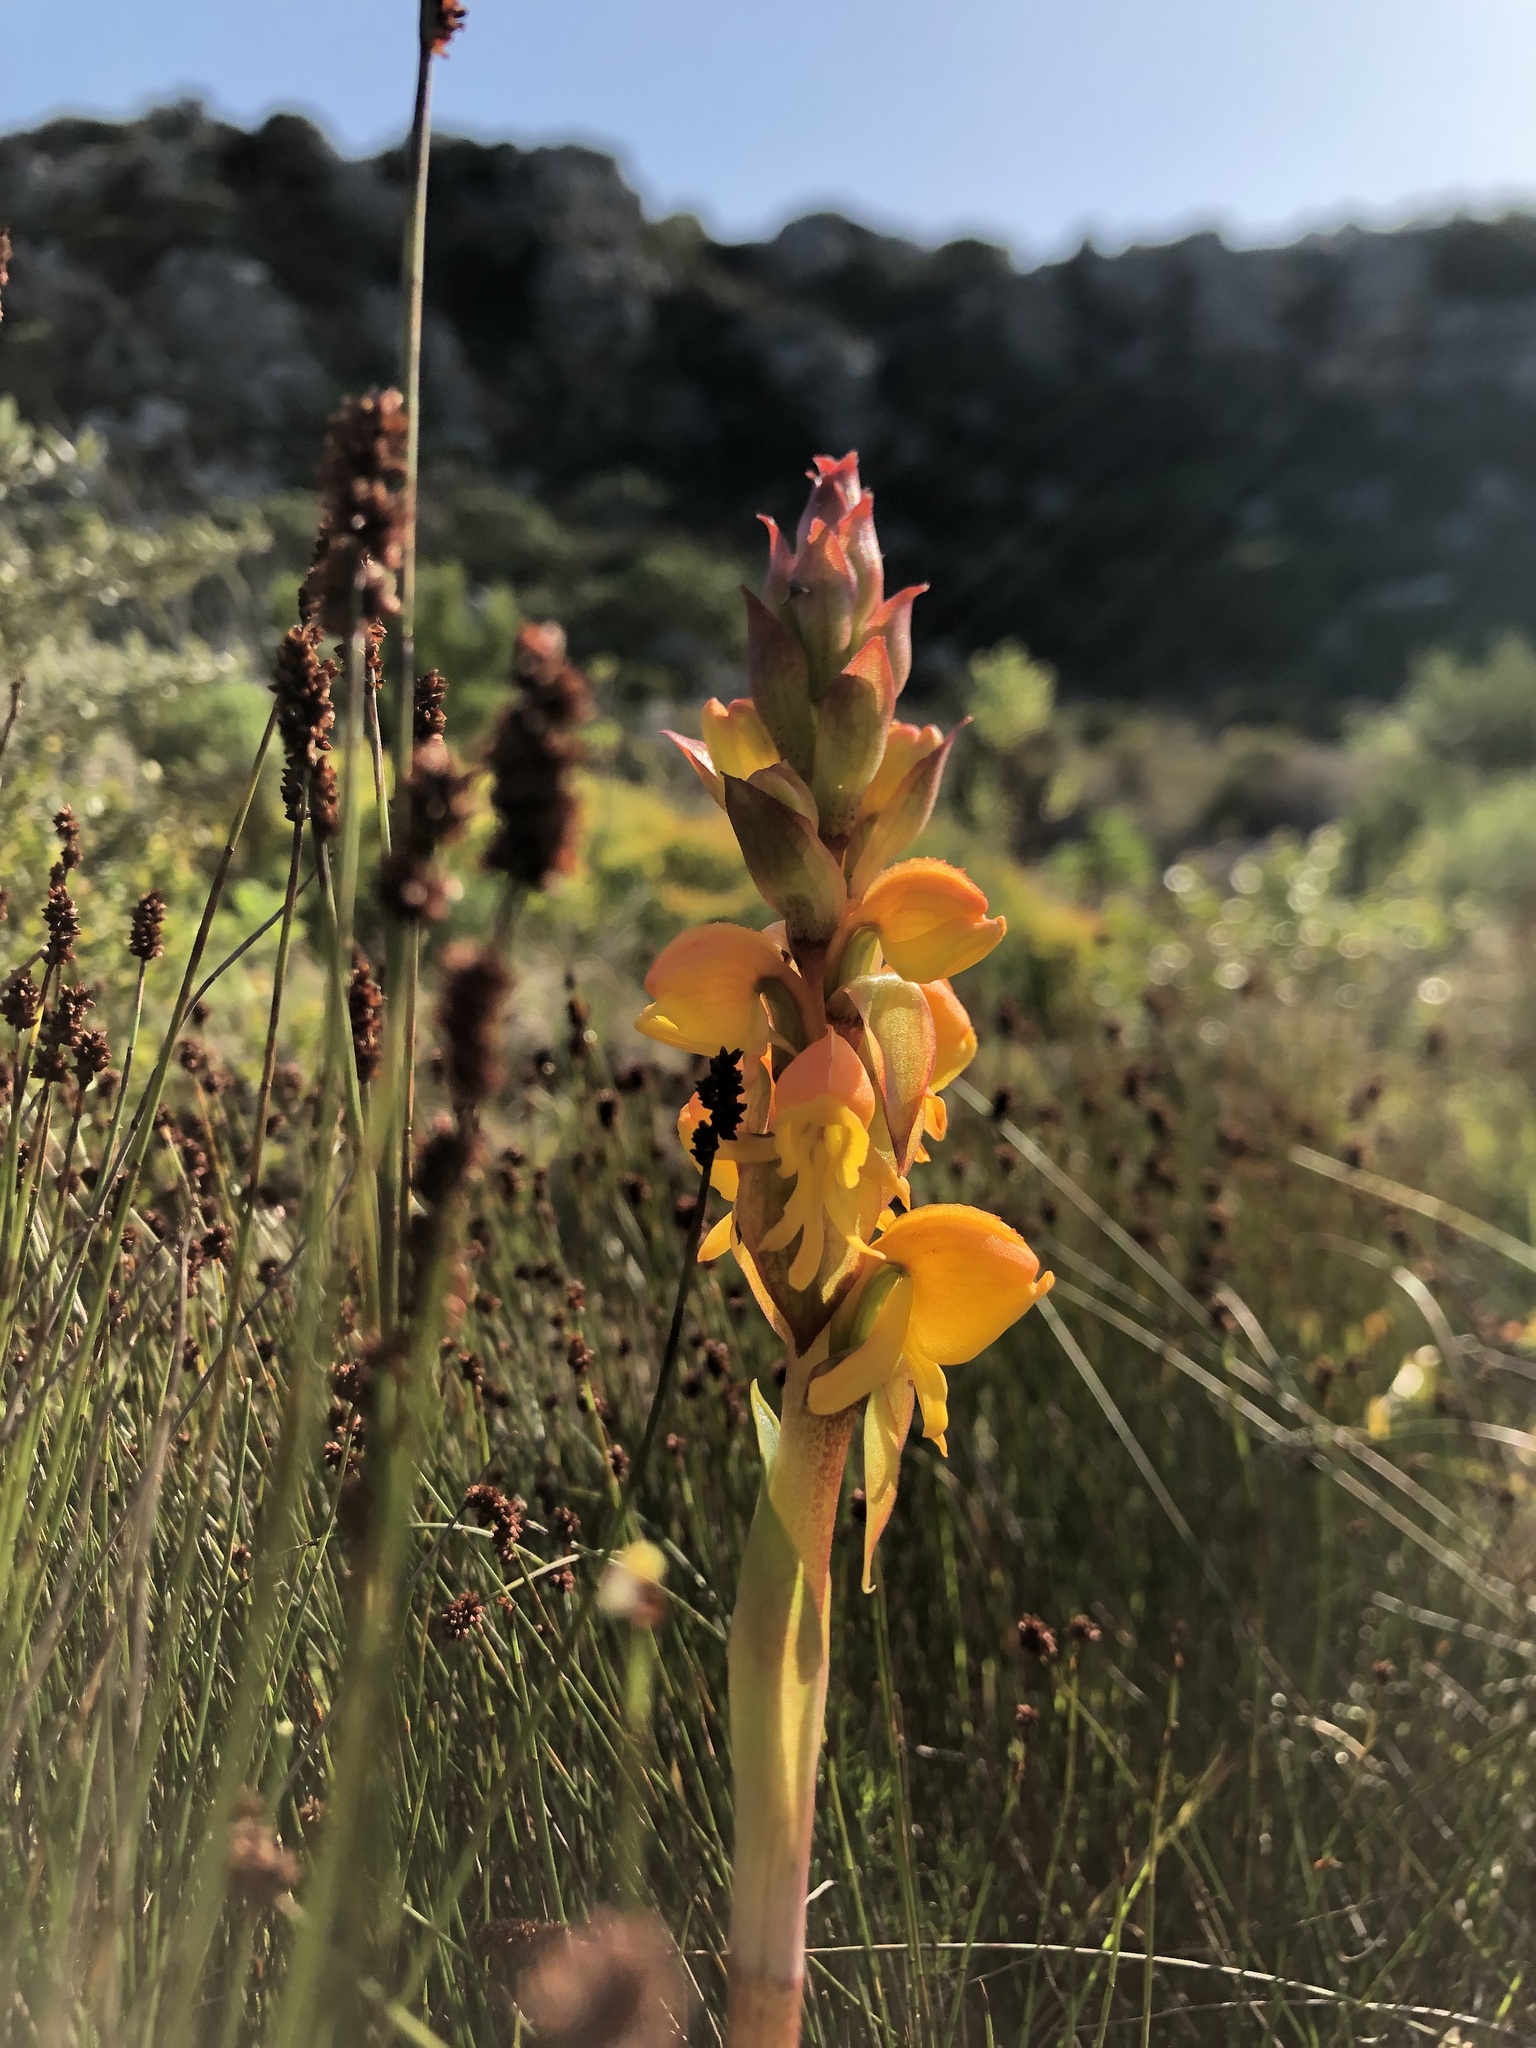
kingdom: Plantae
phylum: Tracheophyta
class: Liliopsida
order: Asparagales
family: Orchidaceae
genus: Satyrium
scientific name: Satyrium coriifolium
